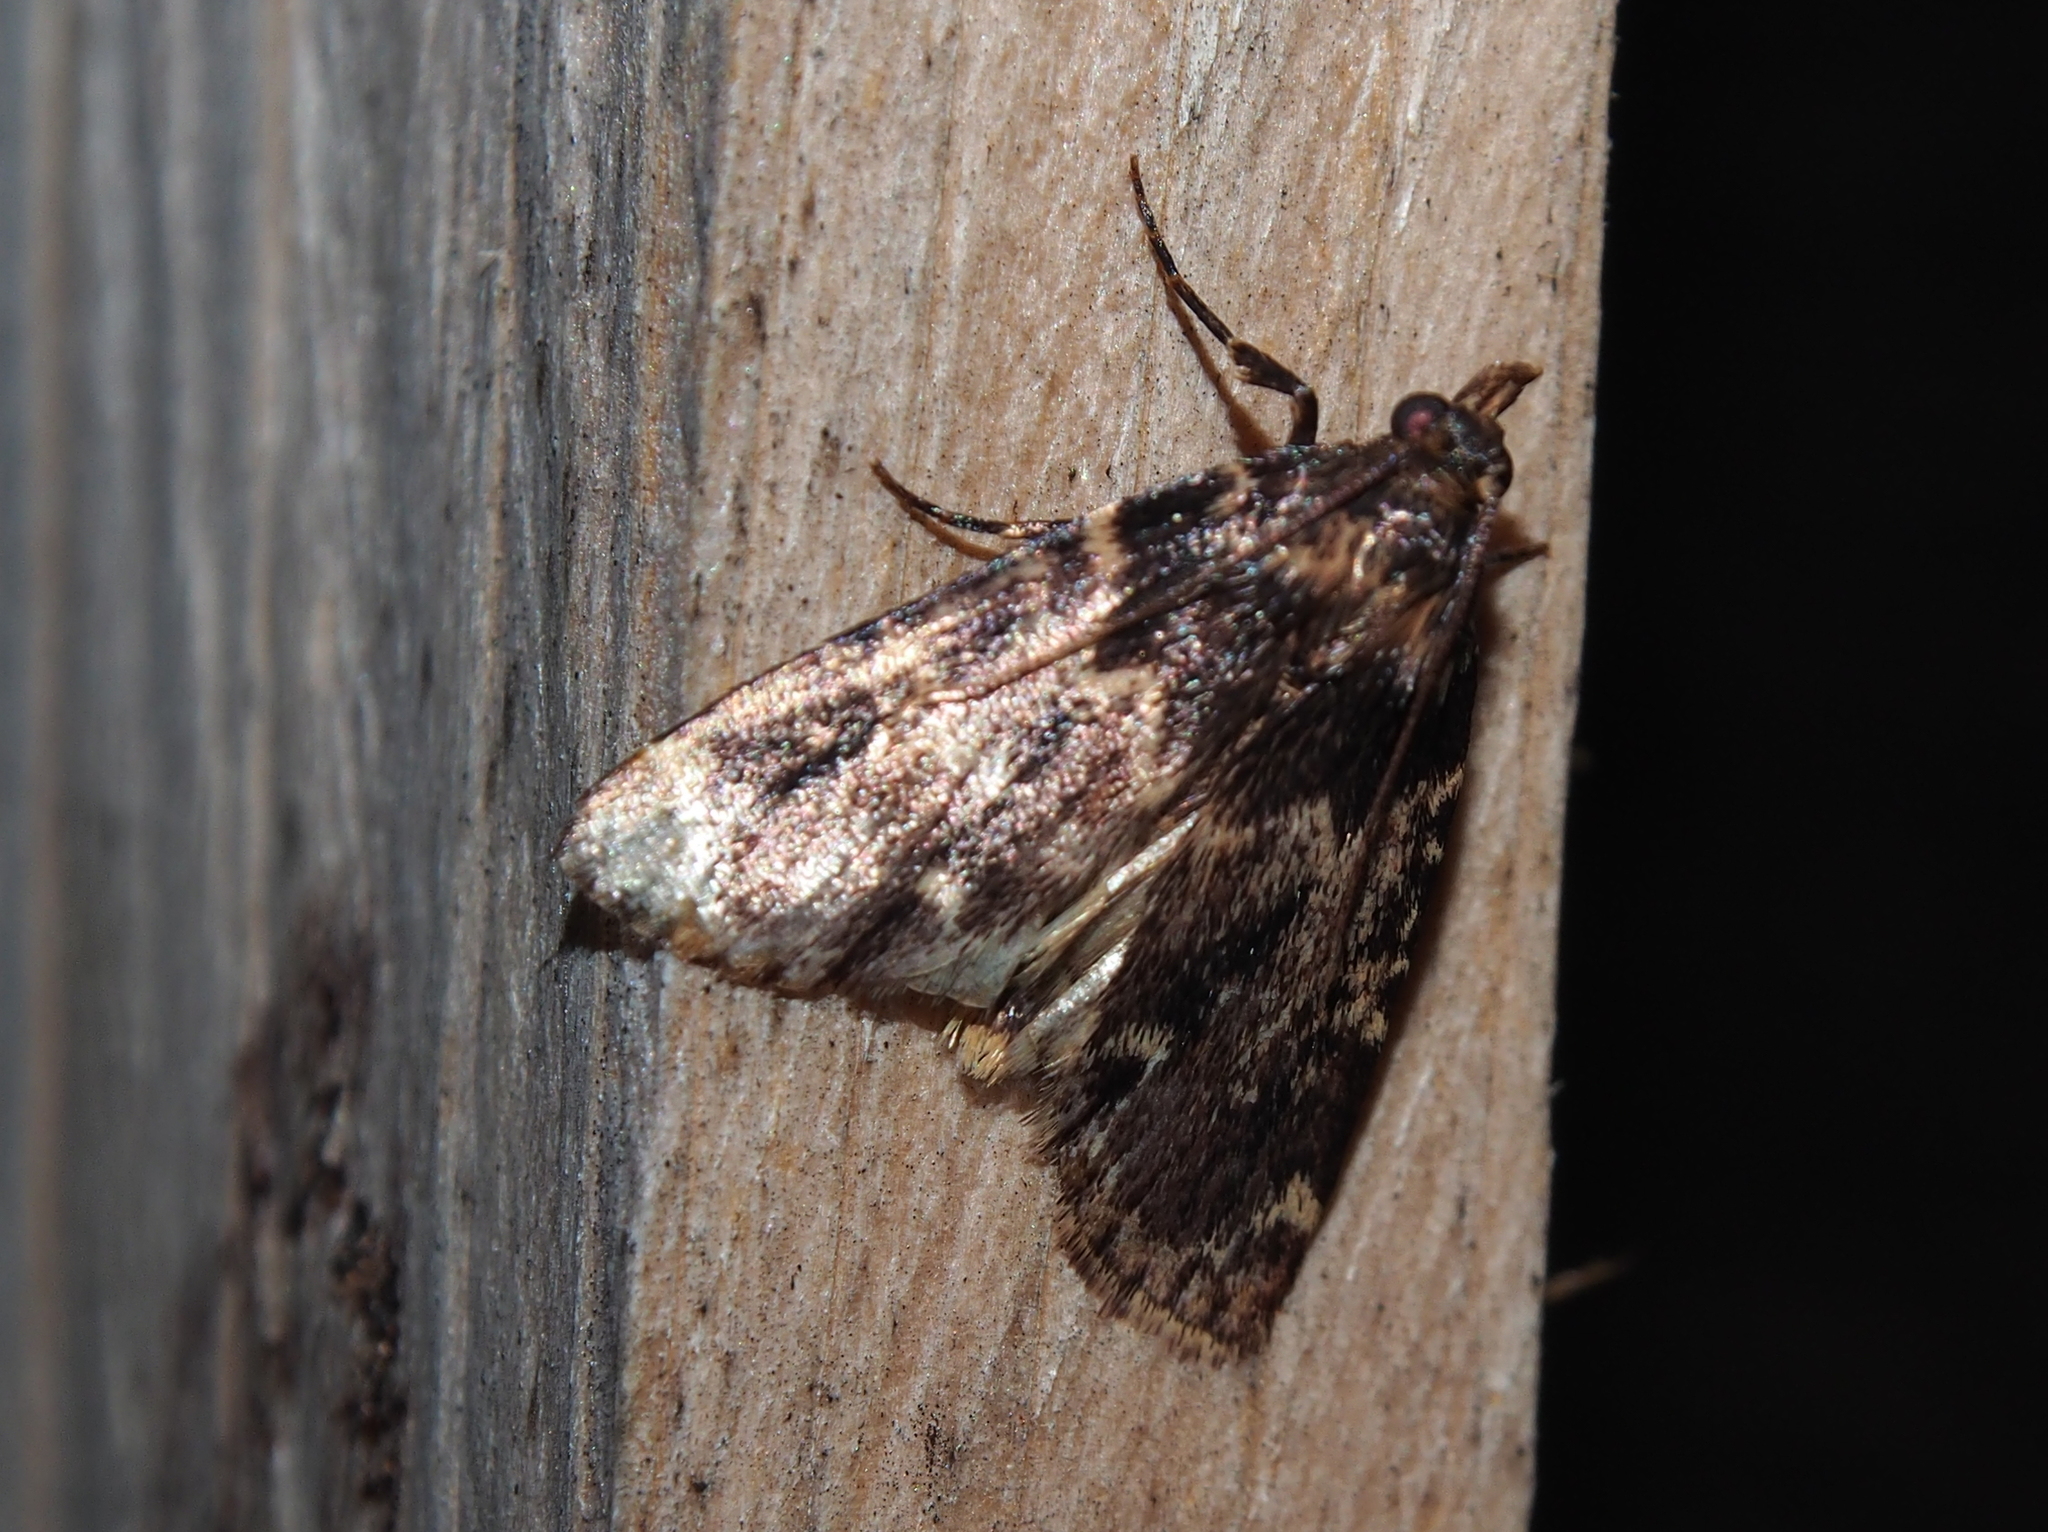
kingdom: Animalia
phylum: Arthropoda
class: Insecta
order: Lepidoptera
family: Pyralidae
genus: Aglossa
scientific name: Aglossa cuprina
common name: Grease moth
